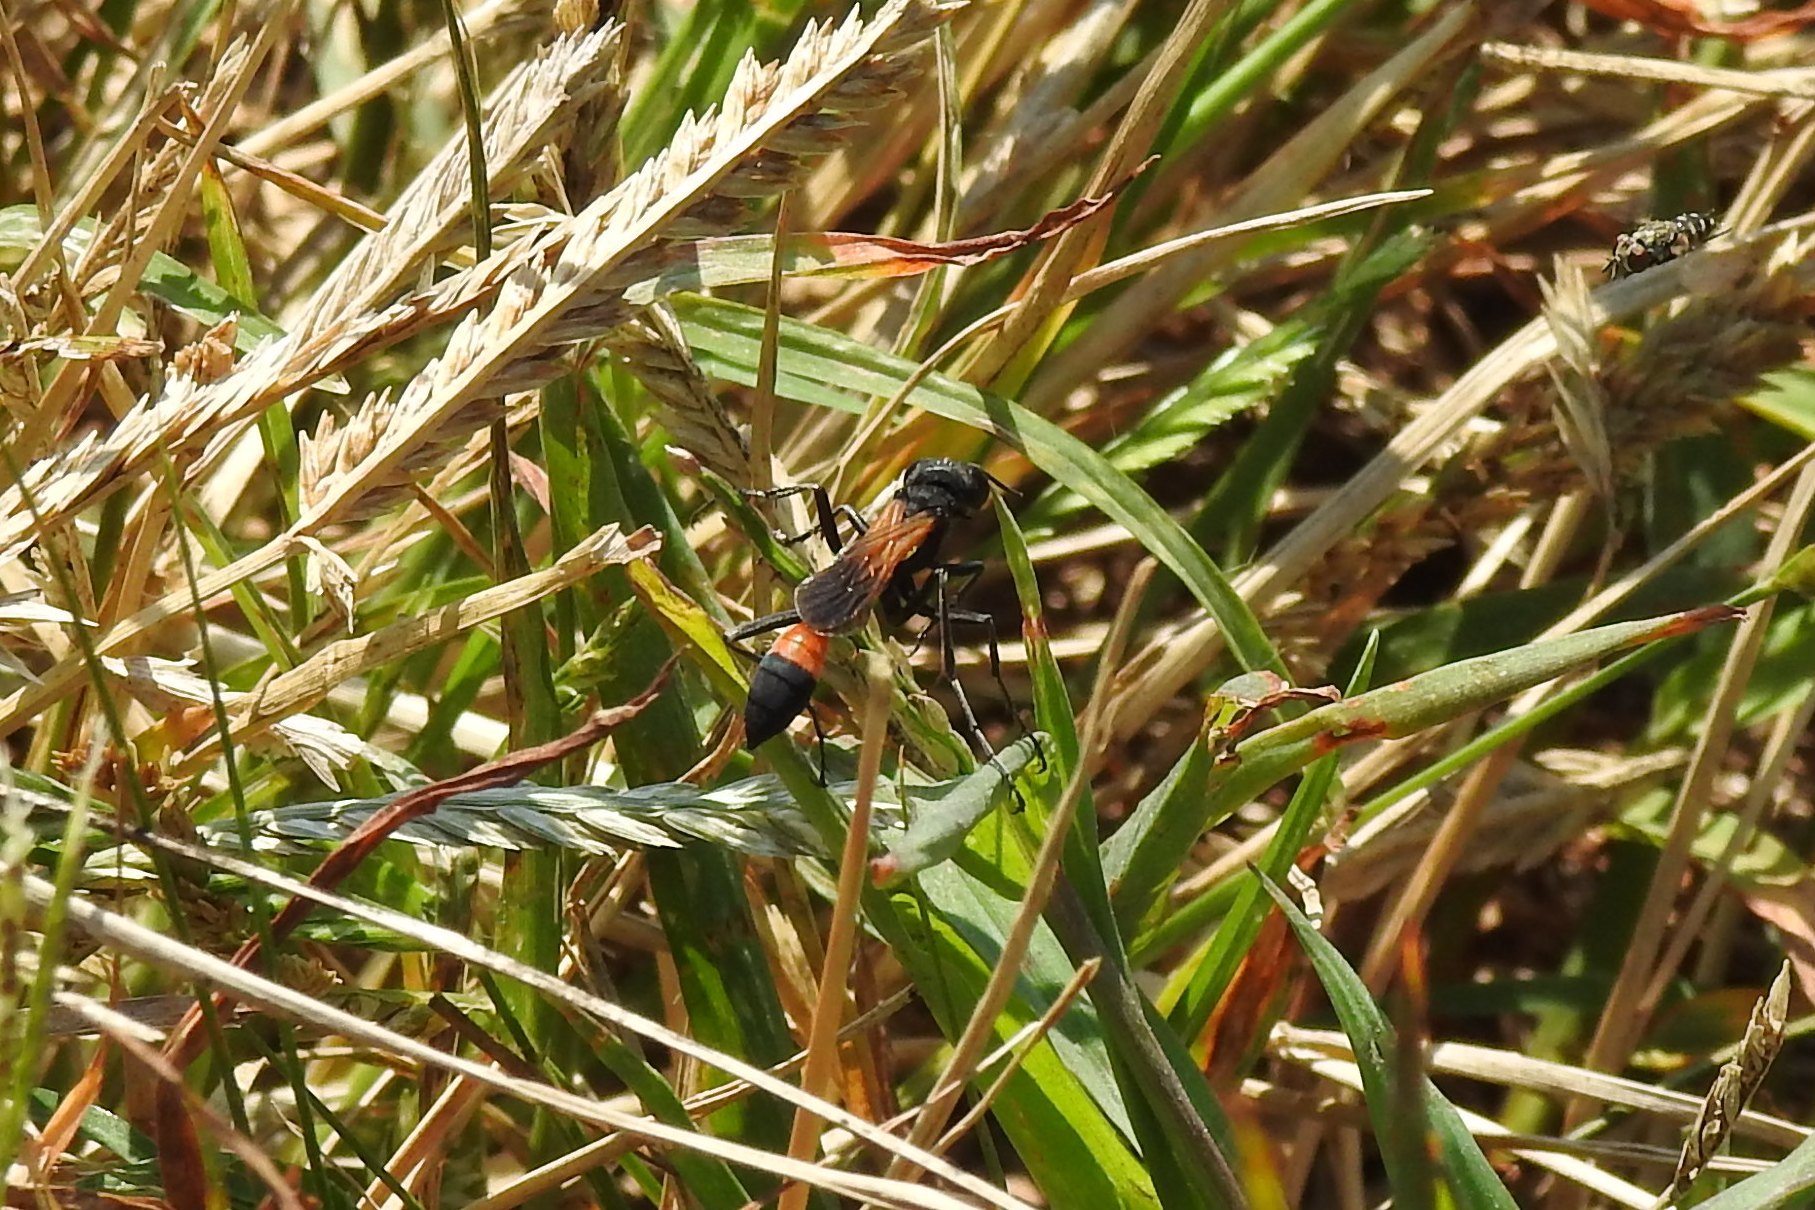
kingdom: Animalia
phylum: Arthropoda
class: Insecta
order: Hymenoptera
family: Sphecidae
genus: Ammophila
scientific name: Ammophila pictipennis
